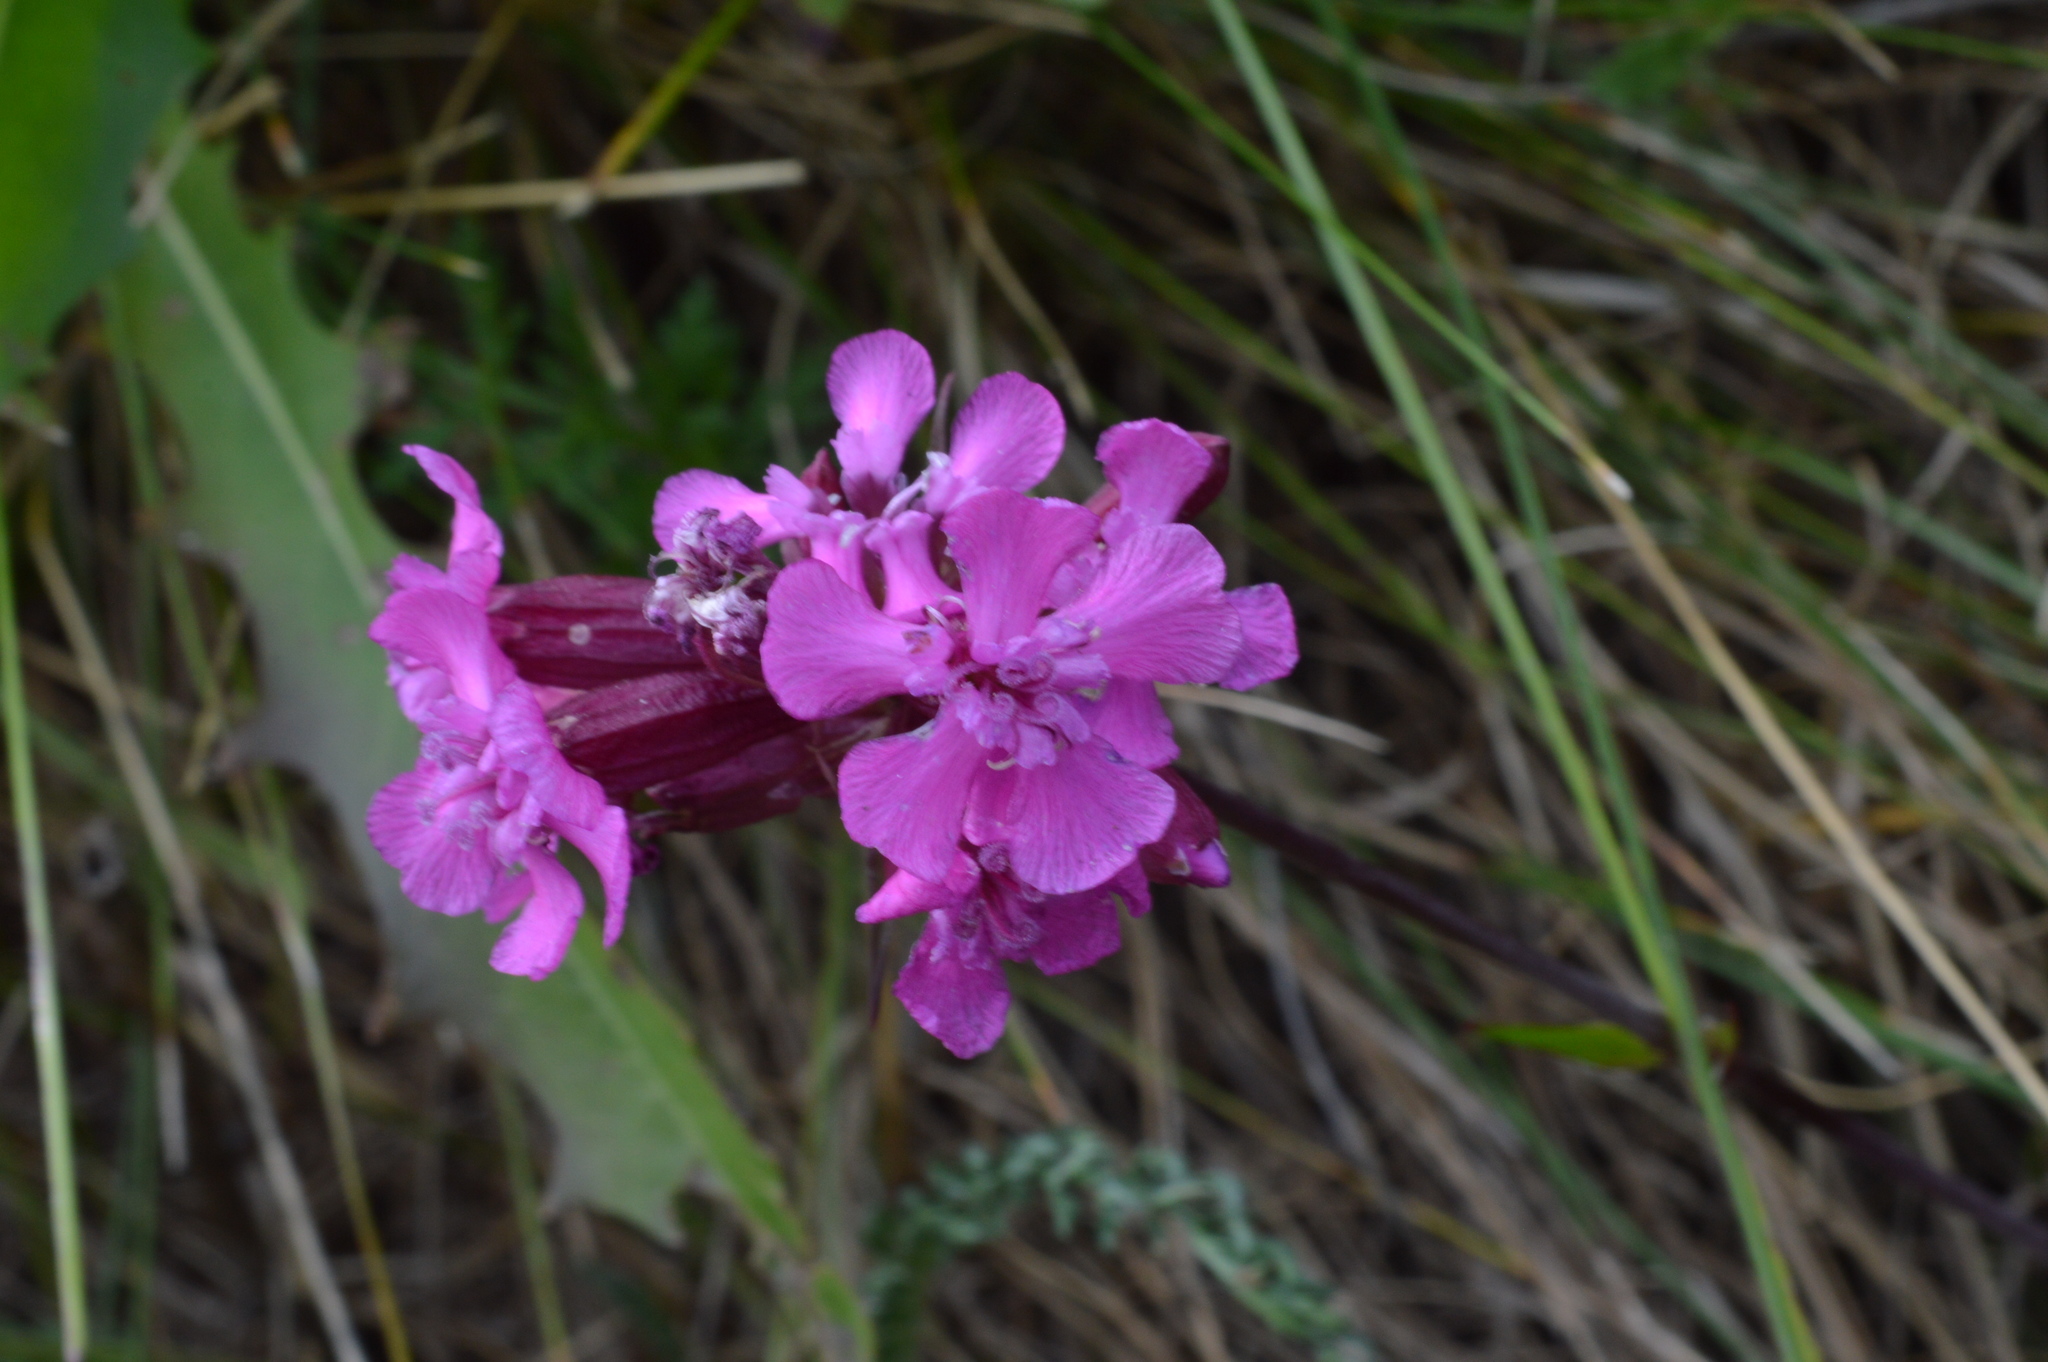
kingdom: Plantae
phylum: Tracheophyta
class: Magnoliopsida
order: Caryophyllales
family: Caryophyllaceae
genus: Viscaria
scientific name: Viscaria vulgaris
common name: Clammy campion
